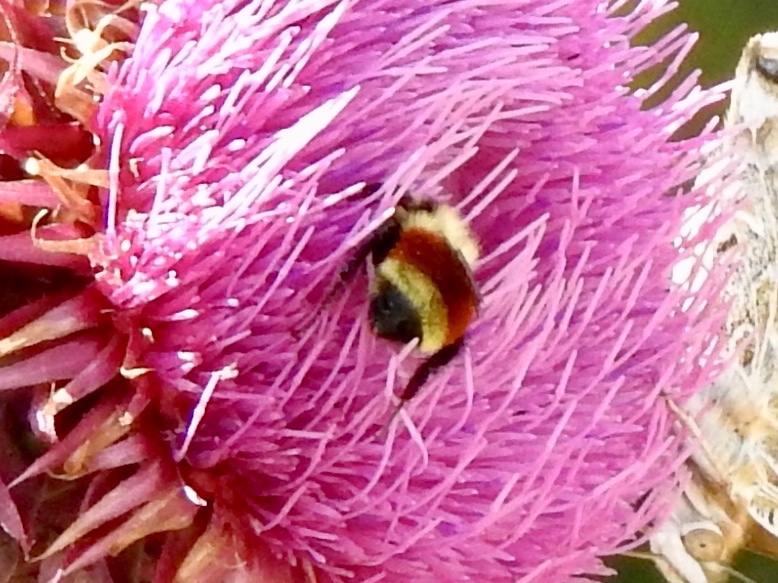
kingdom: Animalia
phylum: Arthropoda
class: Insecta
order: Hymenoptera
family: Apidae
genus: Bombus
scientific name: Bombus huntii
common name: Hunt bumble bee
